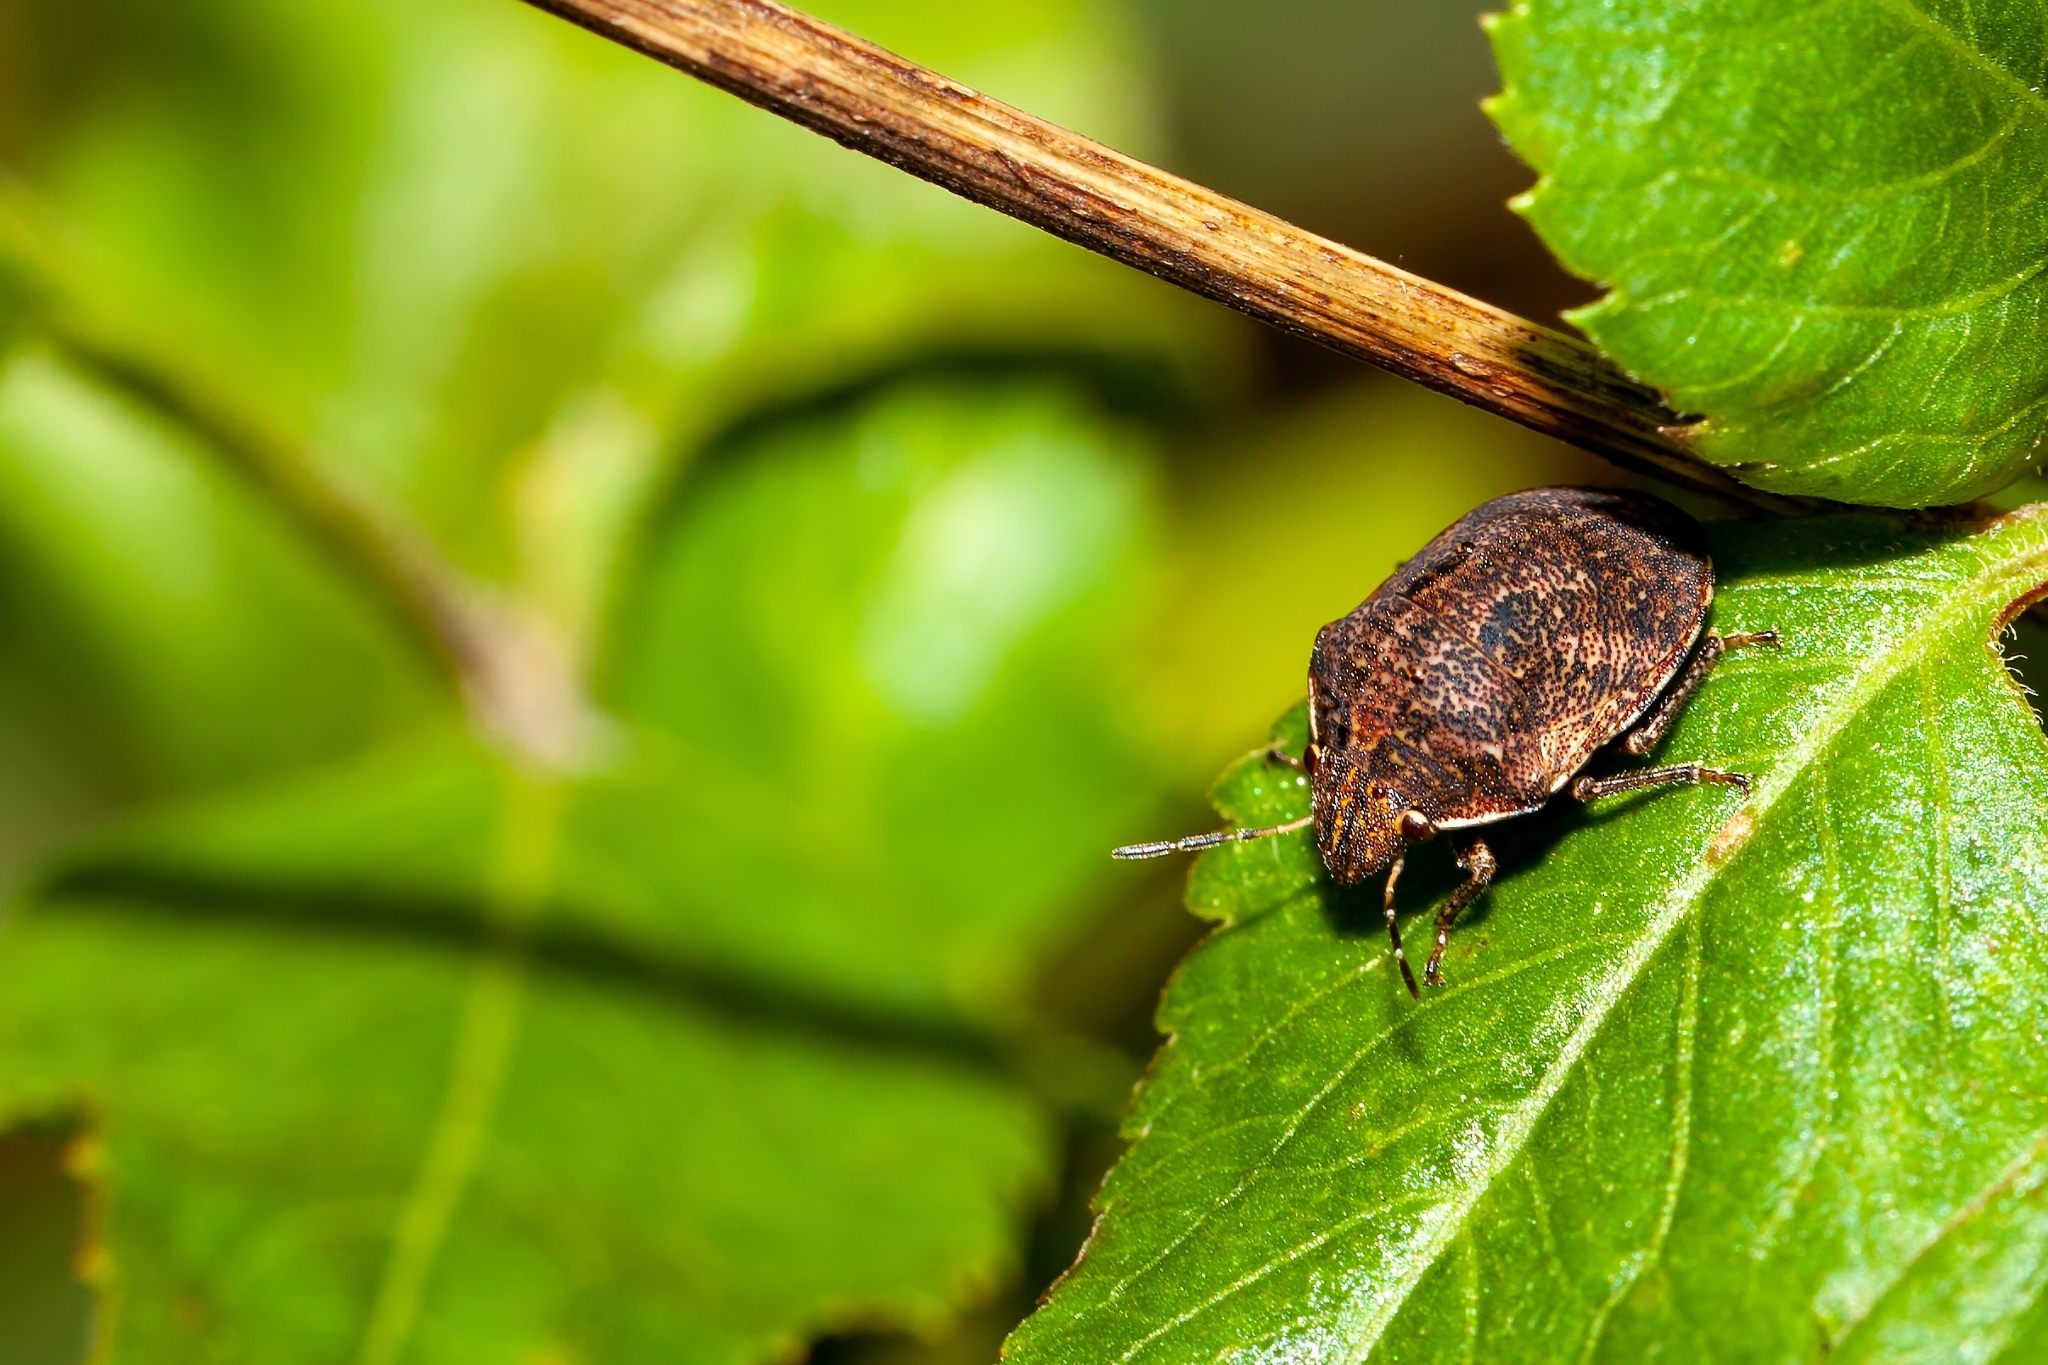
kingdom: Animalia
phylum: Arthropoda
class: Insecta
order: Hemiptera
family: Scutelleridae
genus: Sphyrocoris
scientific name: Sphyrocoris obliquus
